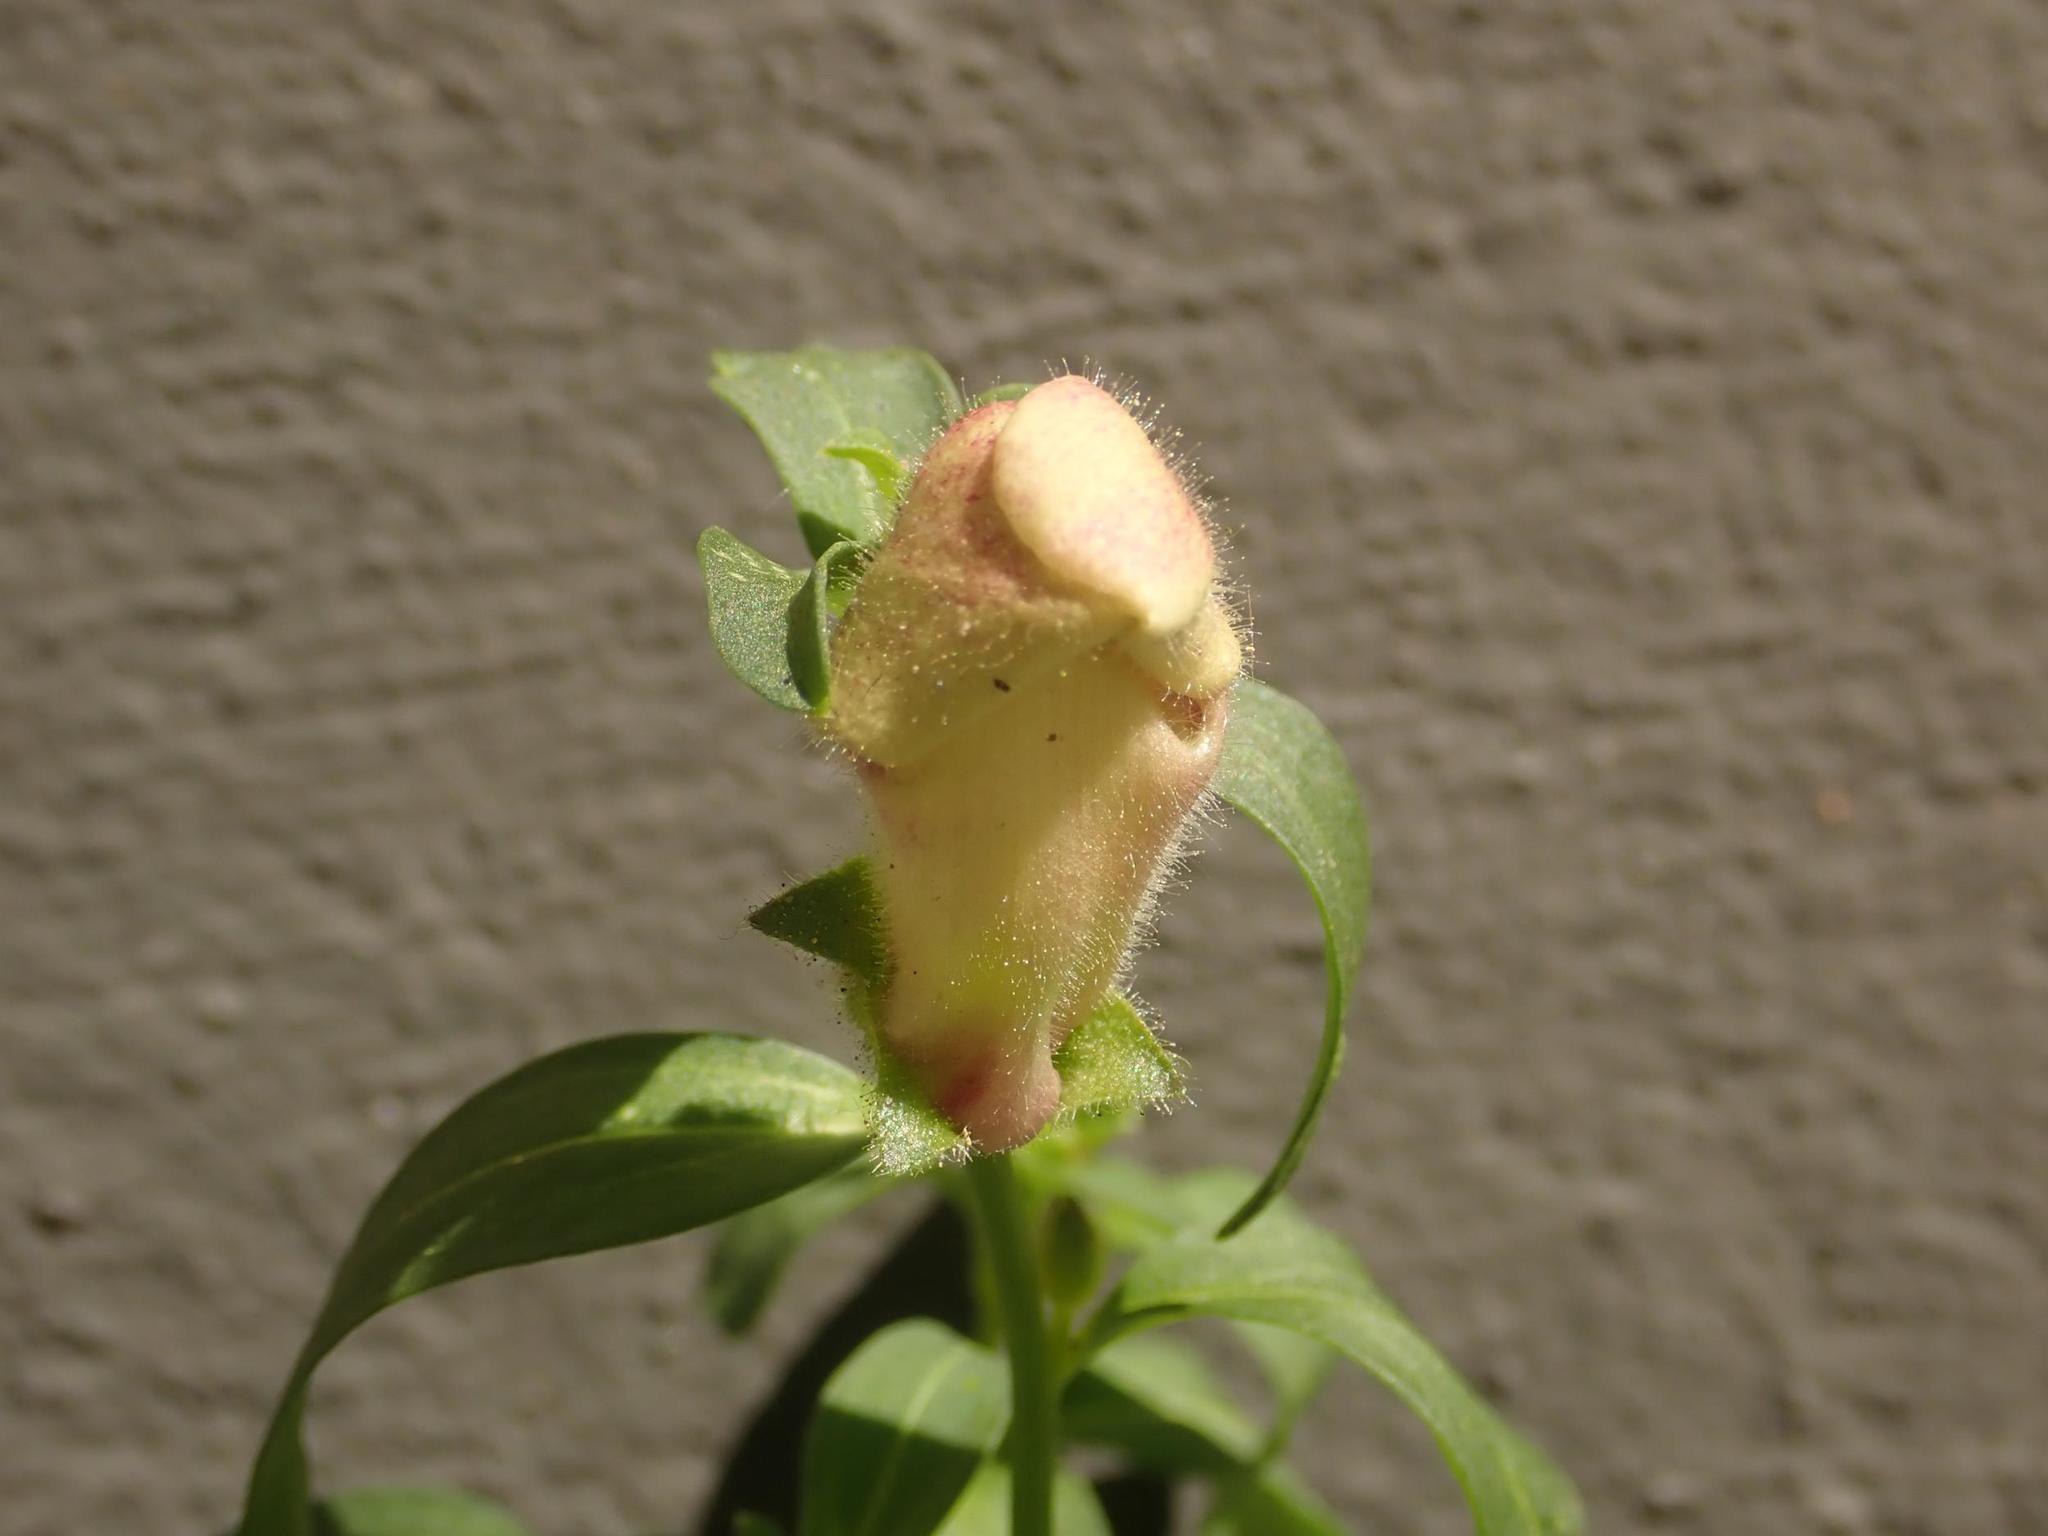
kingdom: Plantae
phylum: Tracheophyta
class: Magnoliopsida
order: Lamiales
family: Plantaginaceae
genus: Antirrhinum
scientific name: Antirrhinum majus
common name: Snapdragon
